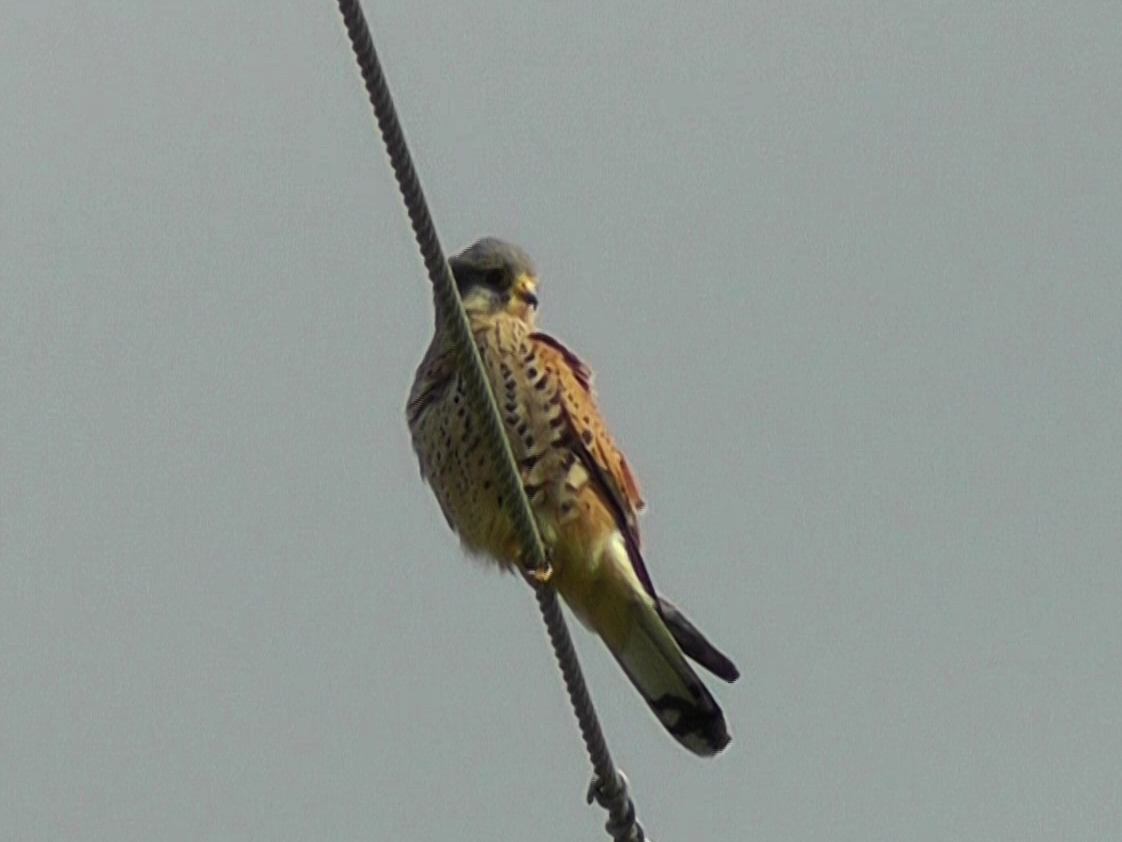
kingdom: Animalia
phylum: Chordata
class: Aves
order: Falconiformes
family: Falconidae
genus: Falco
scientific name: Falco tinnunculus
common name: Common kestrel
